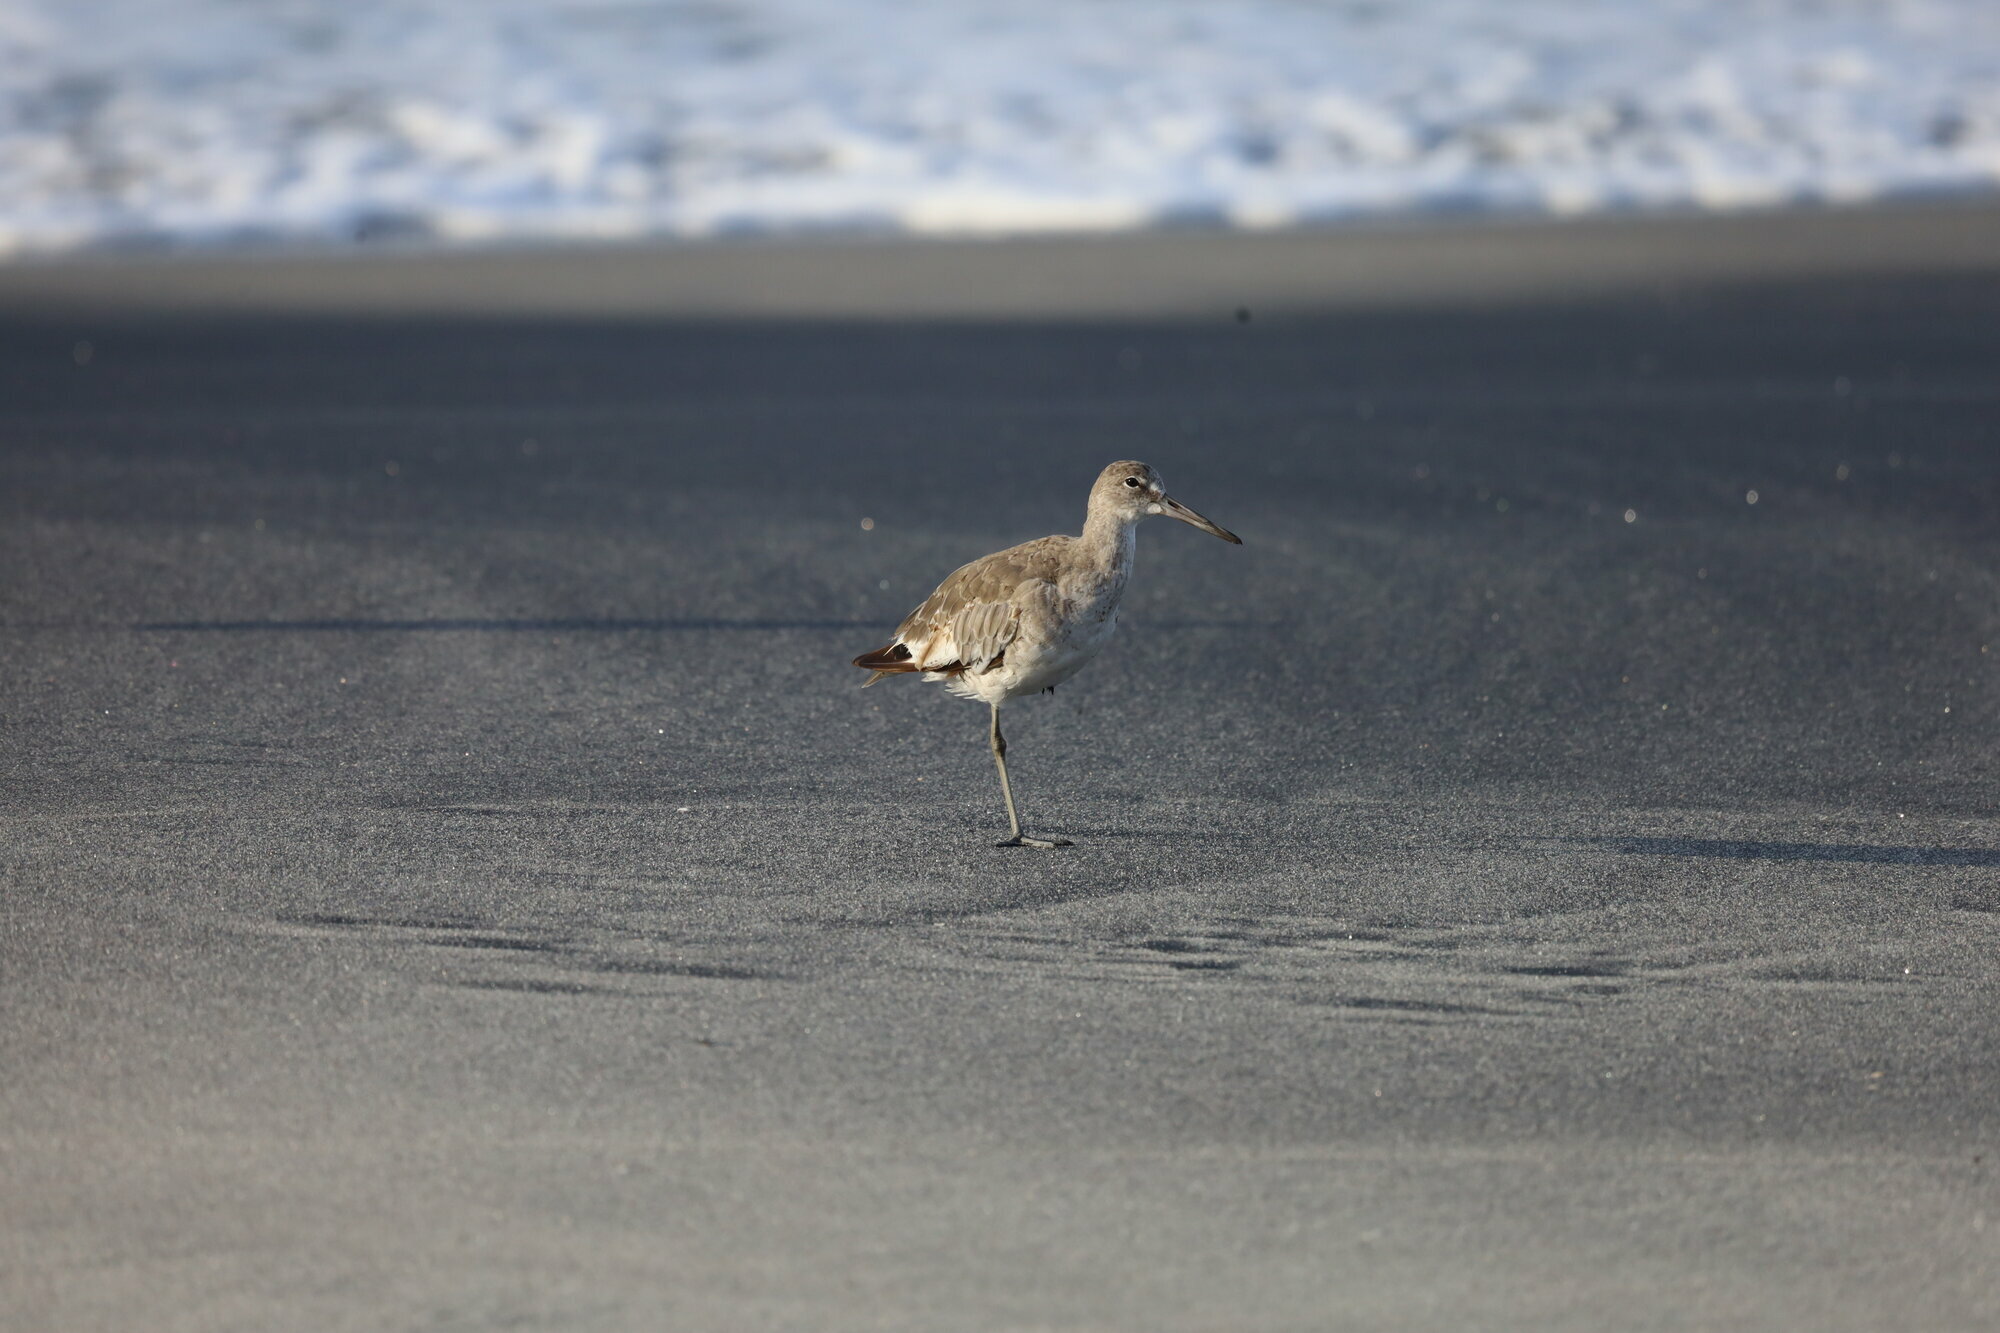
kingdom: Animalia
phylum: Chordata
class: Aves
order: Charadriiformes
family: Scolopacidae
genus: Tringa
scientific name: Tringa semipalmata
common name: Willet
